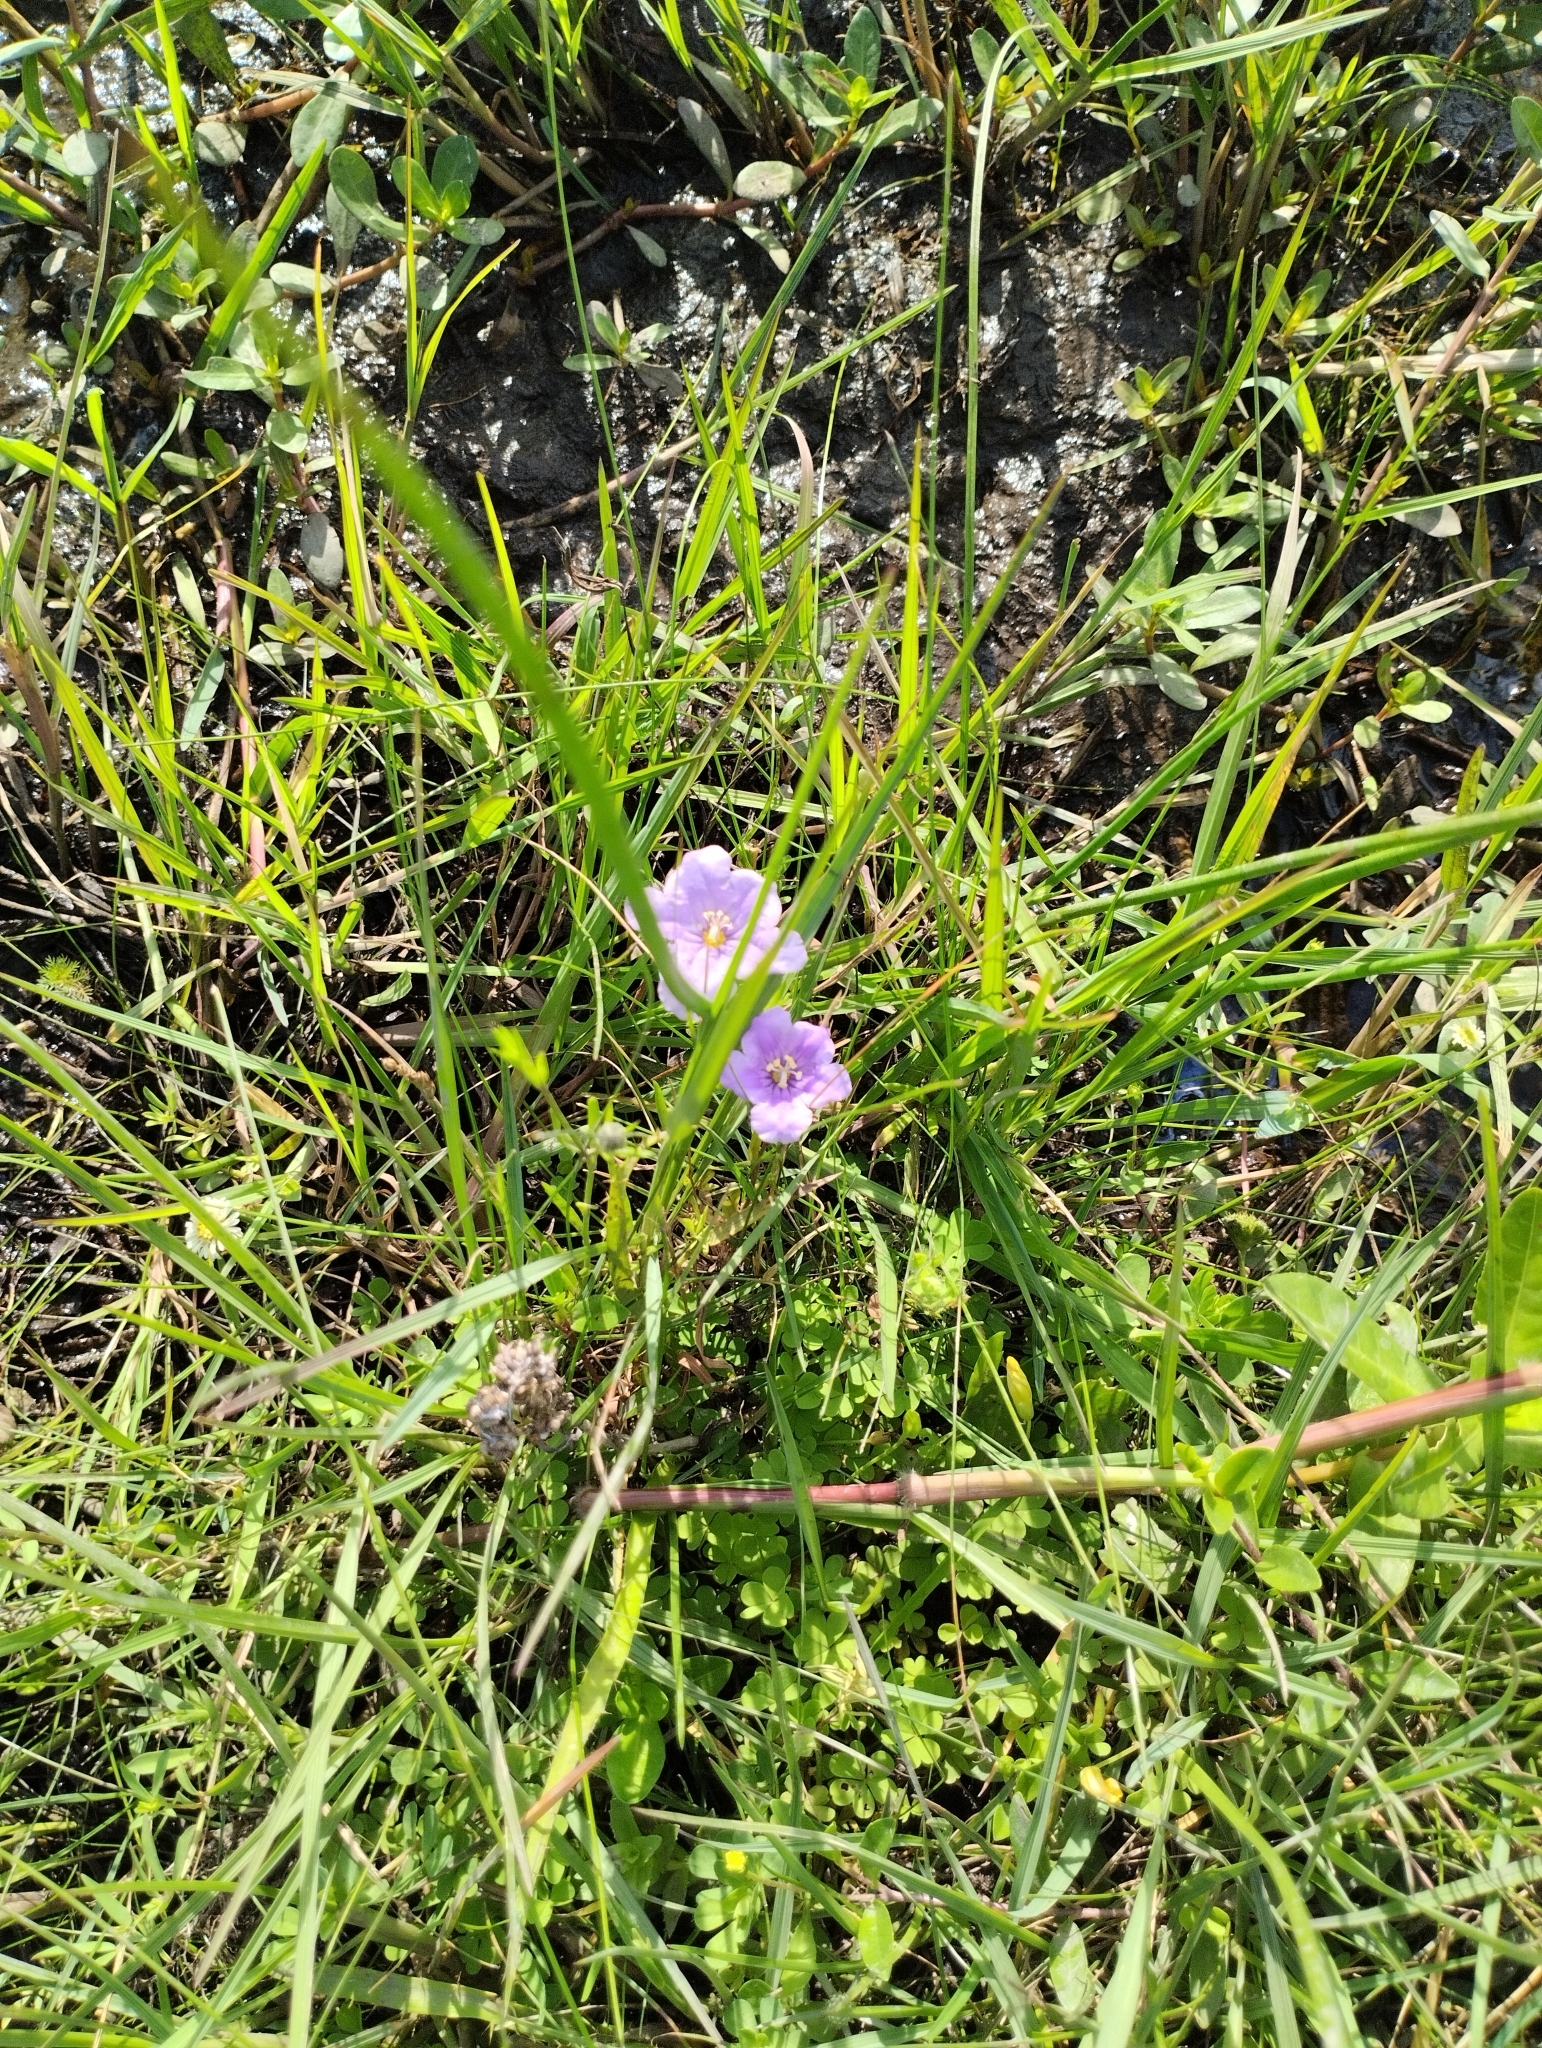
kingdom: Plantae
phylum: Tracheophyta
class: Magnoliopsida
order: Solanales
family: Solanaceae
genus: Nierembergia
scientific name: Nierembergia aristata
